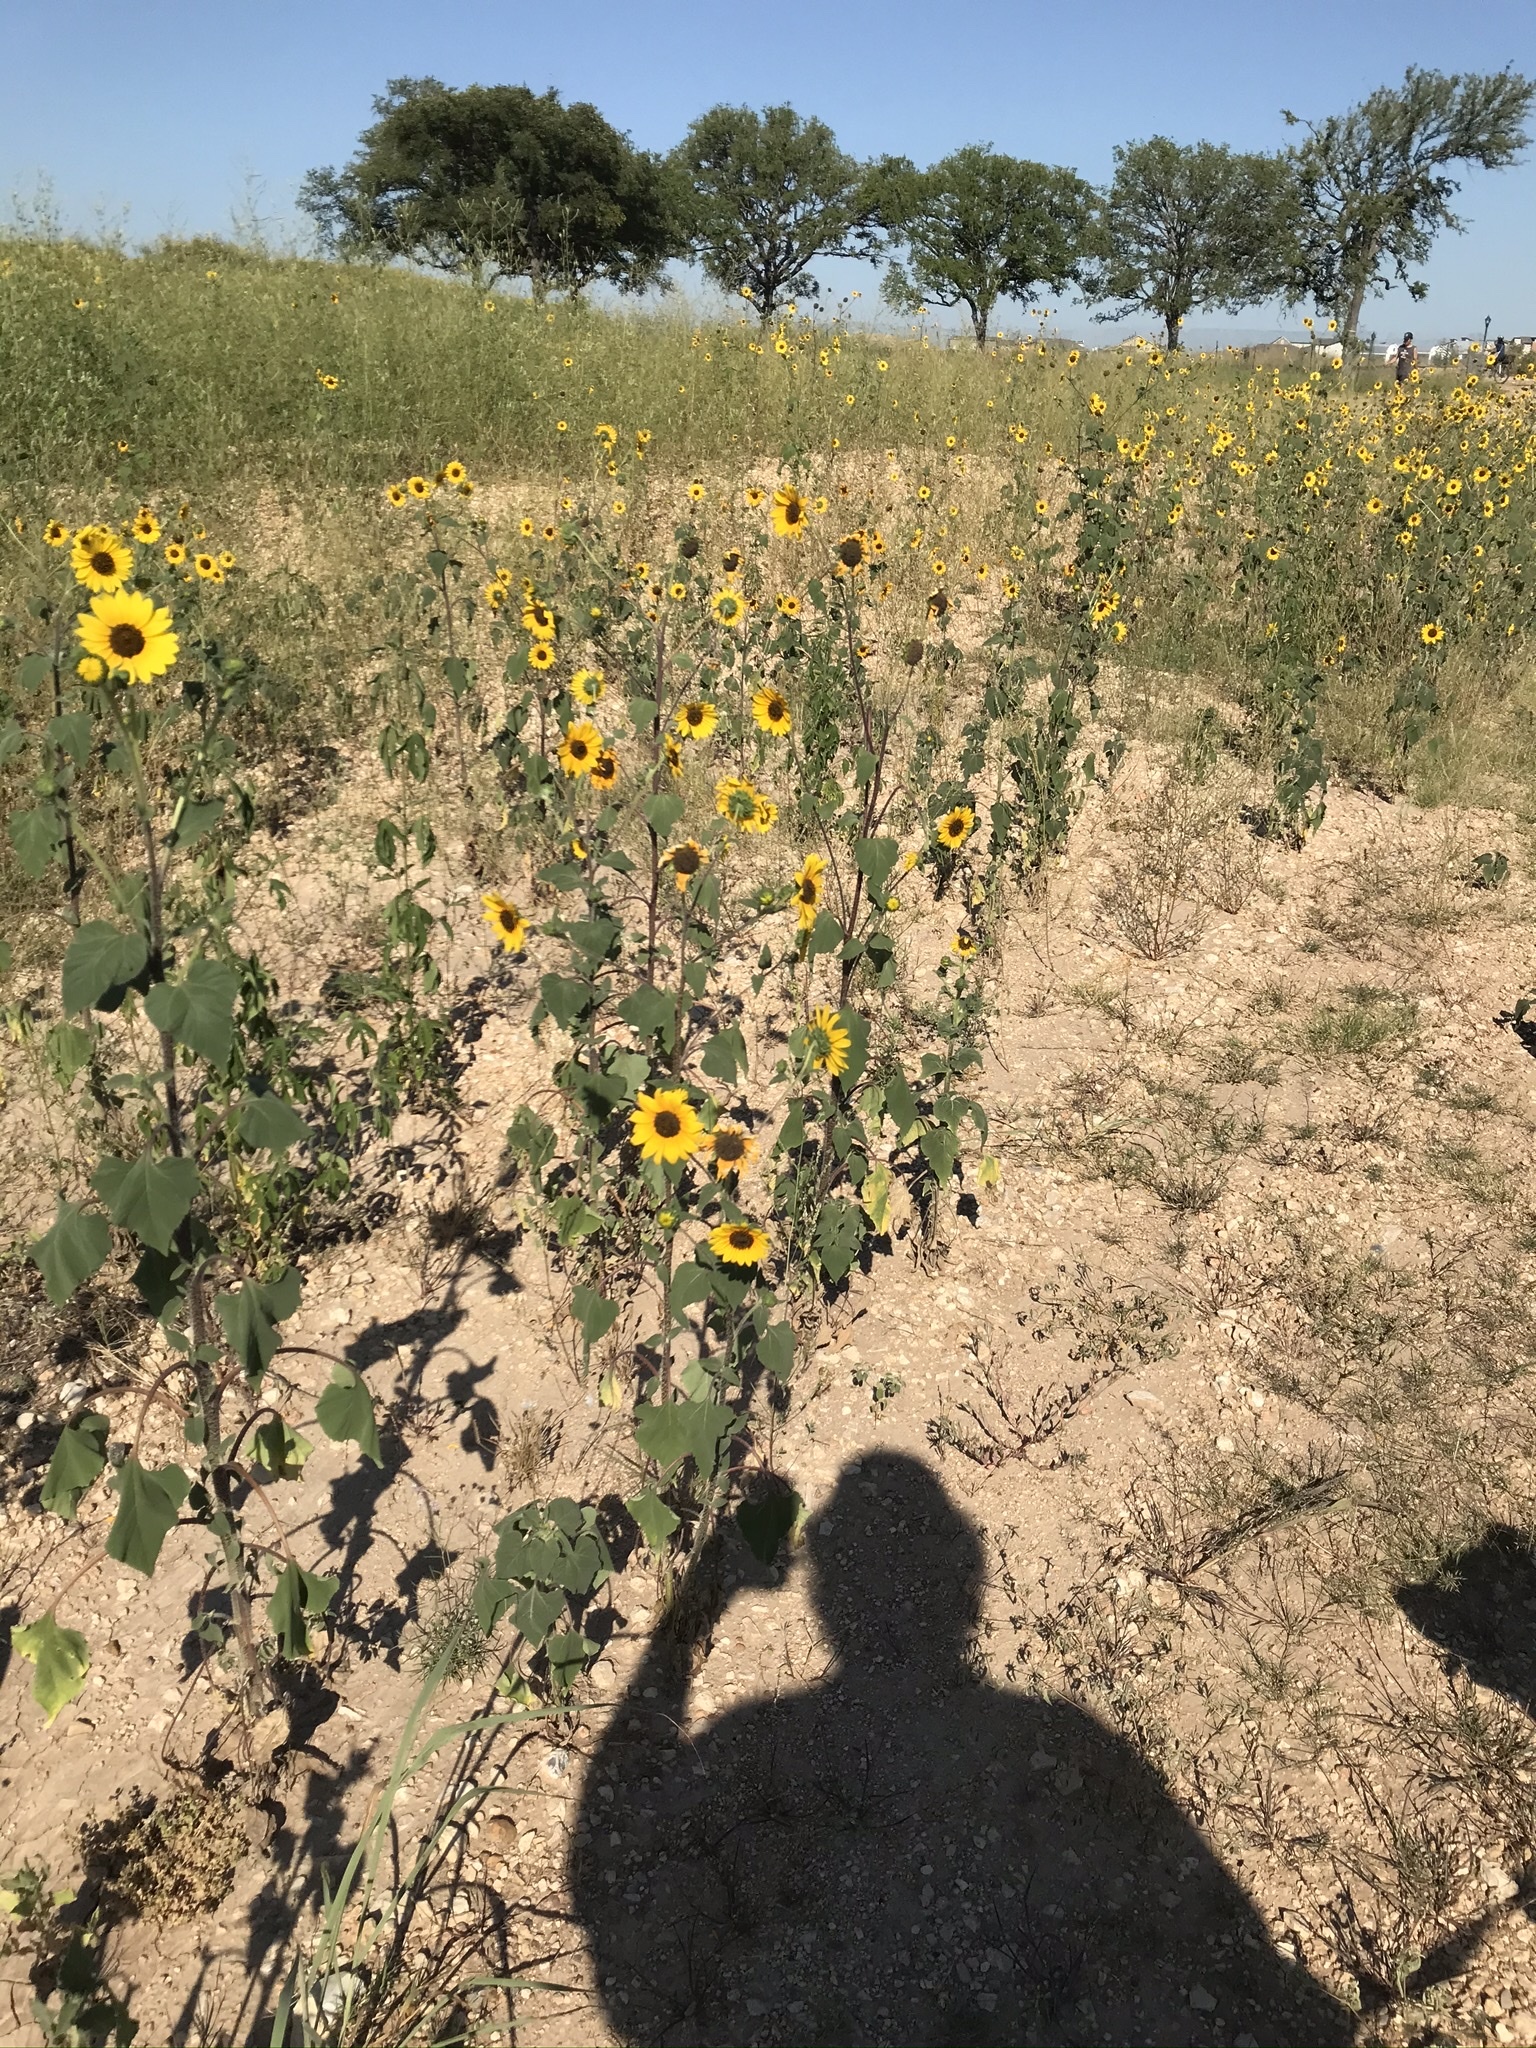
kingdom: Plantae
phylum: Tracheophyta
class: Magnoliopsida
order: Asterales
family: Asteraceae
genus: Helianthus
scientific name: Helianthus annuus
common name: Sunflower
